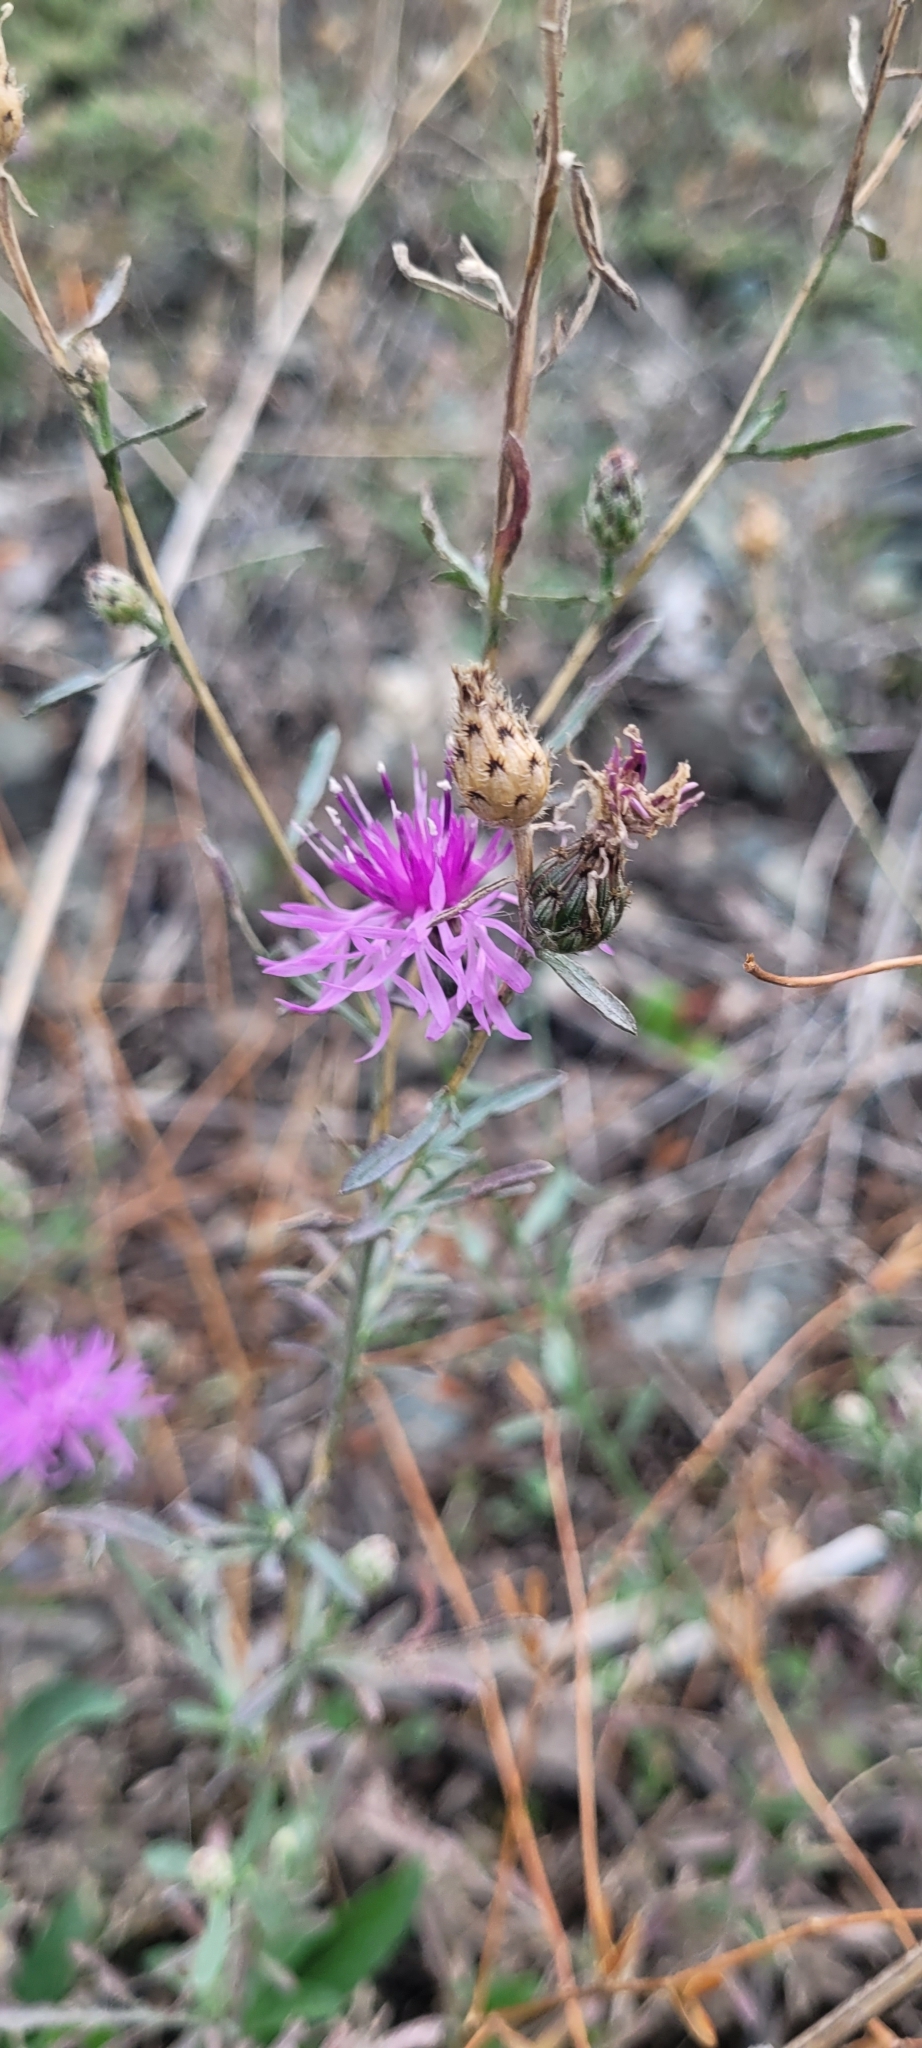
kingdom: Plantae
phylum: Tracheophyta
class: Magnoliopsida
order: Asterales
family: Asteraceae
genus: Centaurea
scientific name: Centaurea stoebe
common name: Spotted knapweed
